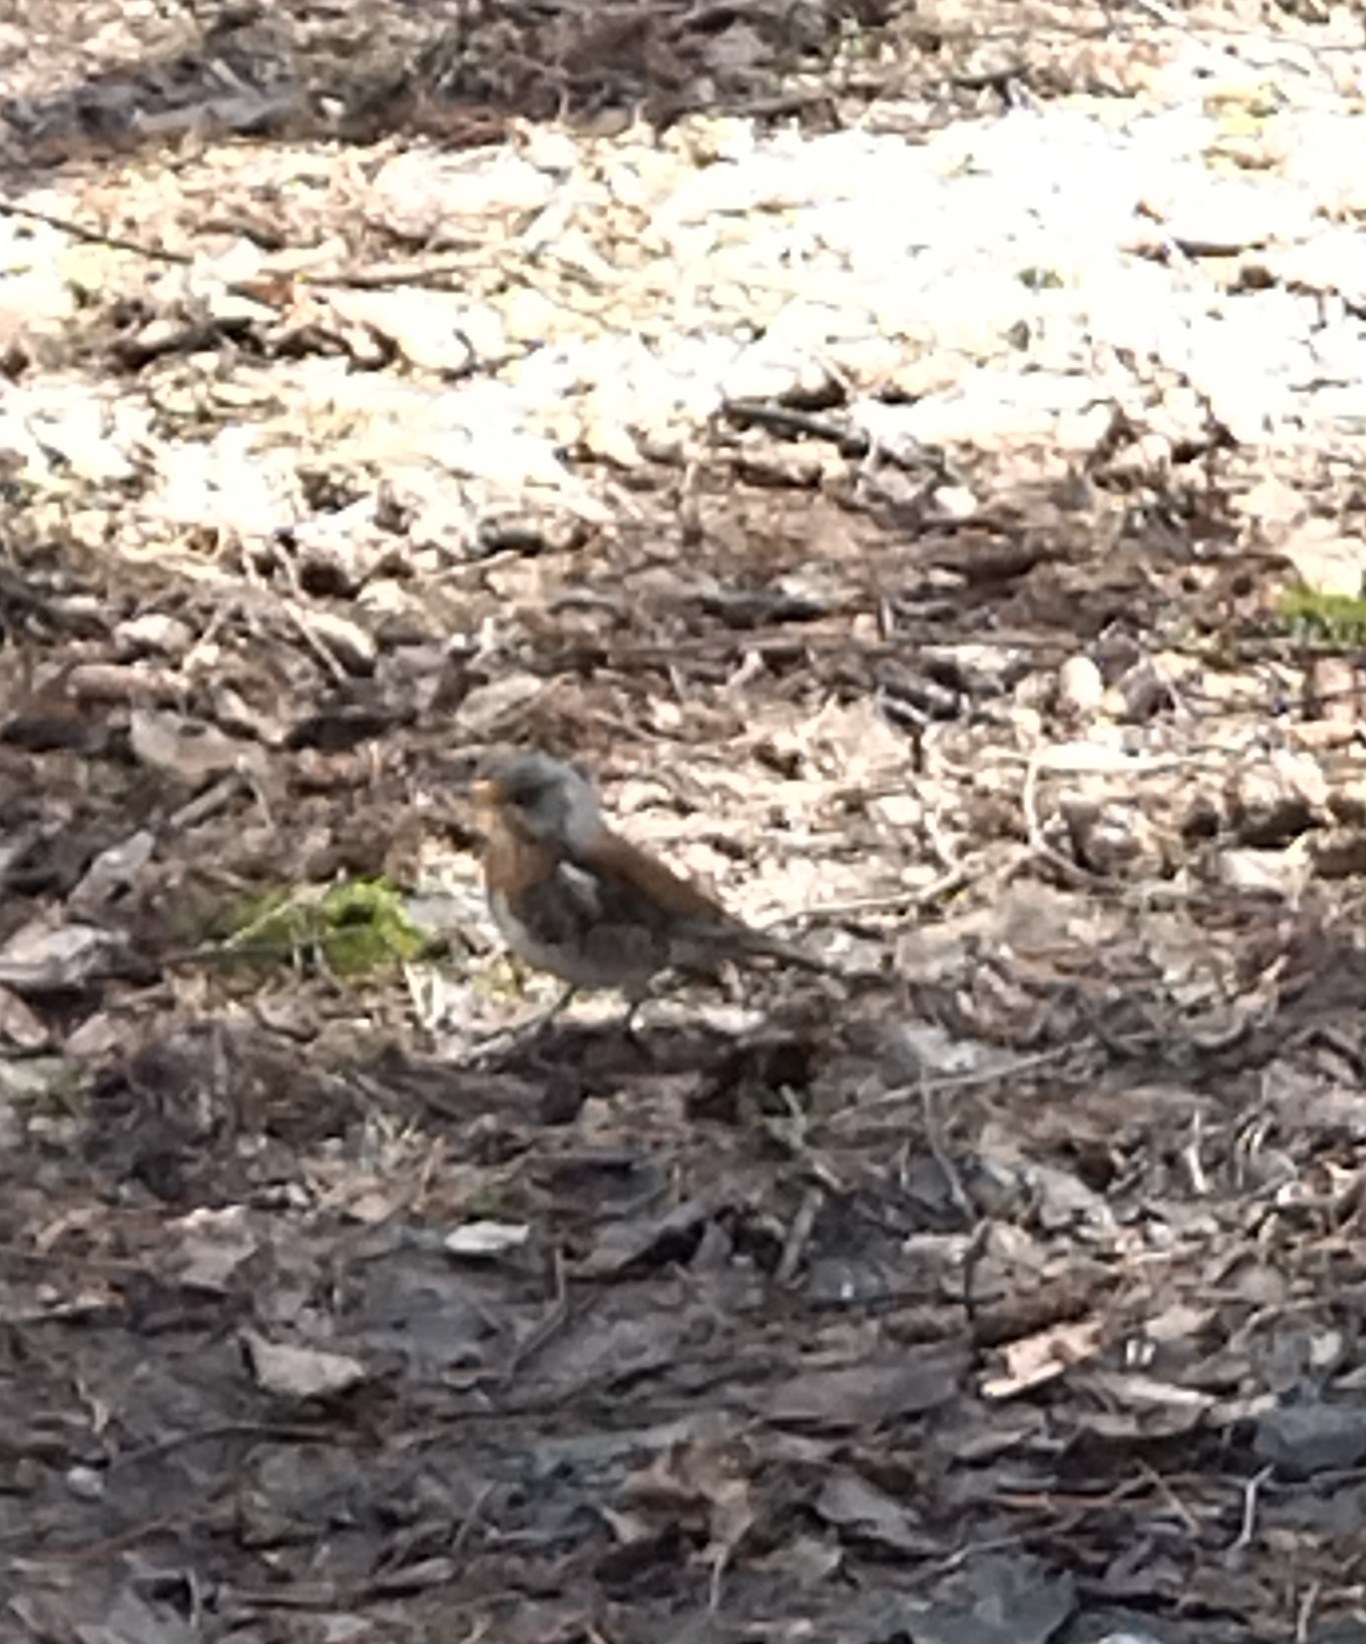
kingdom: Animalia
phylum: Chordata
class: Aves
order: Passeriformes
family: Turdidae
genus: Turdus
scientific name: Turdus pilaris
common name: Fieldfare
